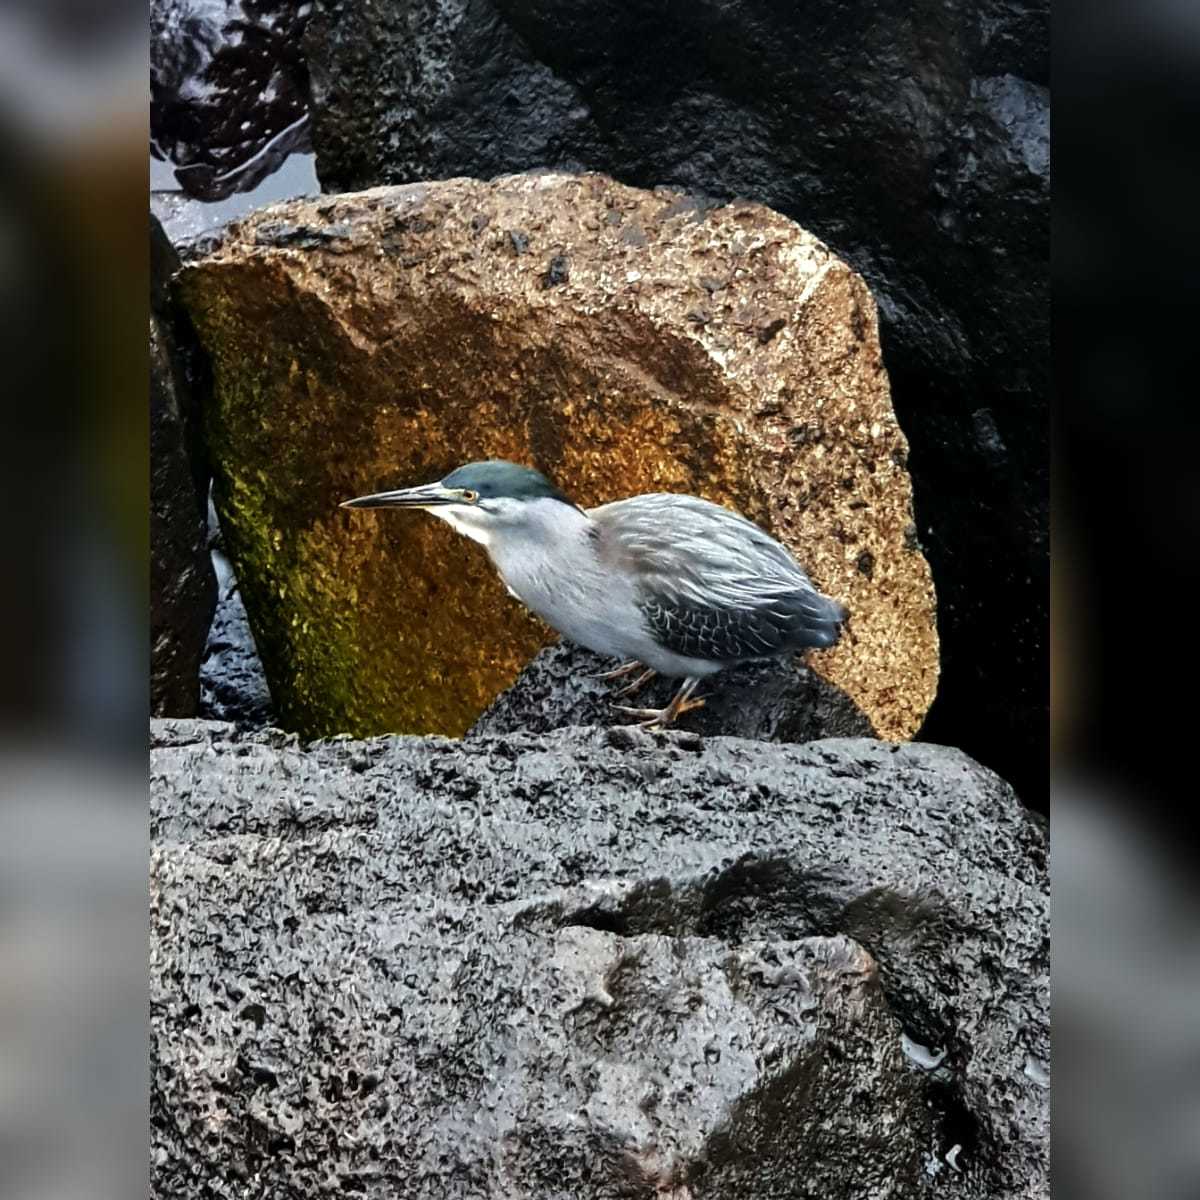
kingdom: Animalia
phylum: Chordata
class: Aves
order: Pelecaniformes
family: Ardeidae
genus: Butorides
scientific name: Butorides striata
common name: Striated heron
